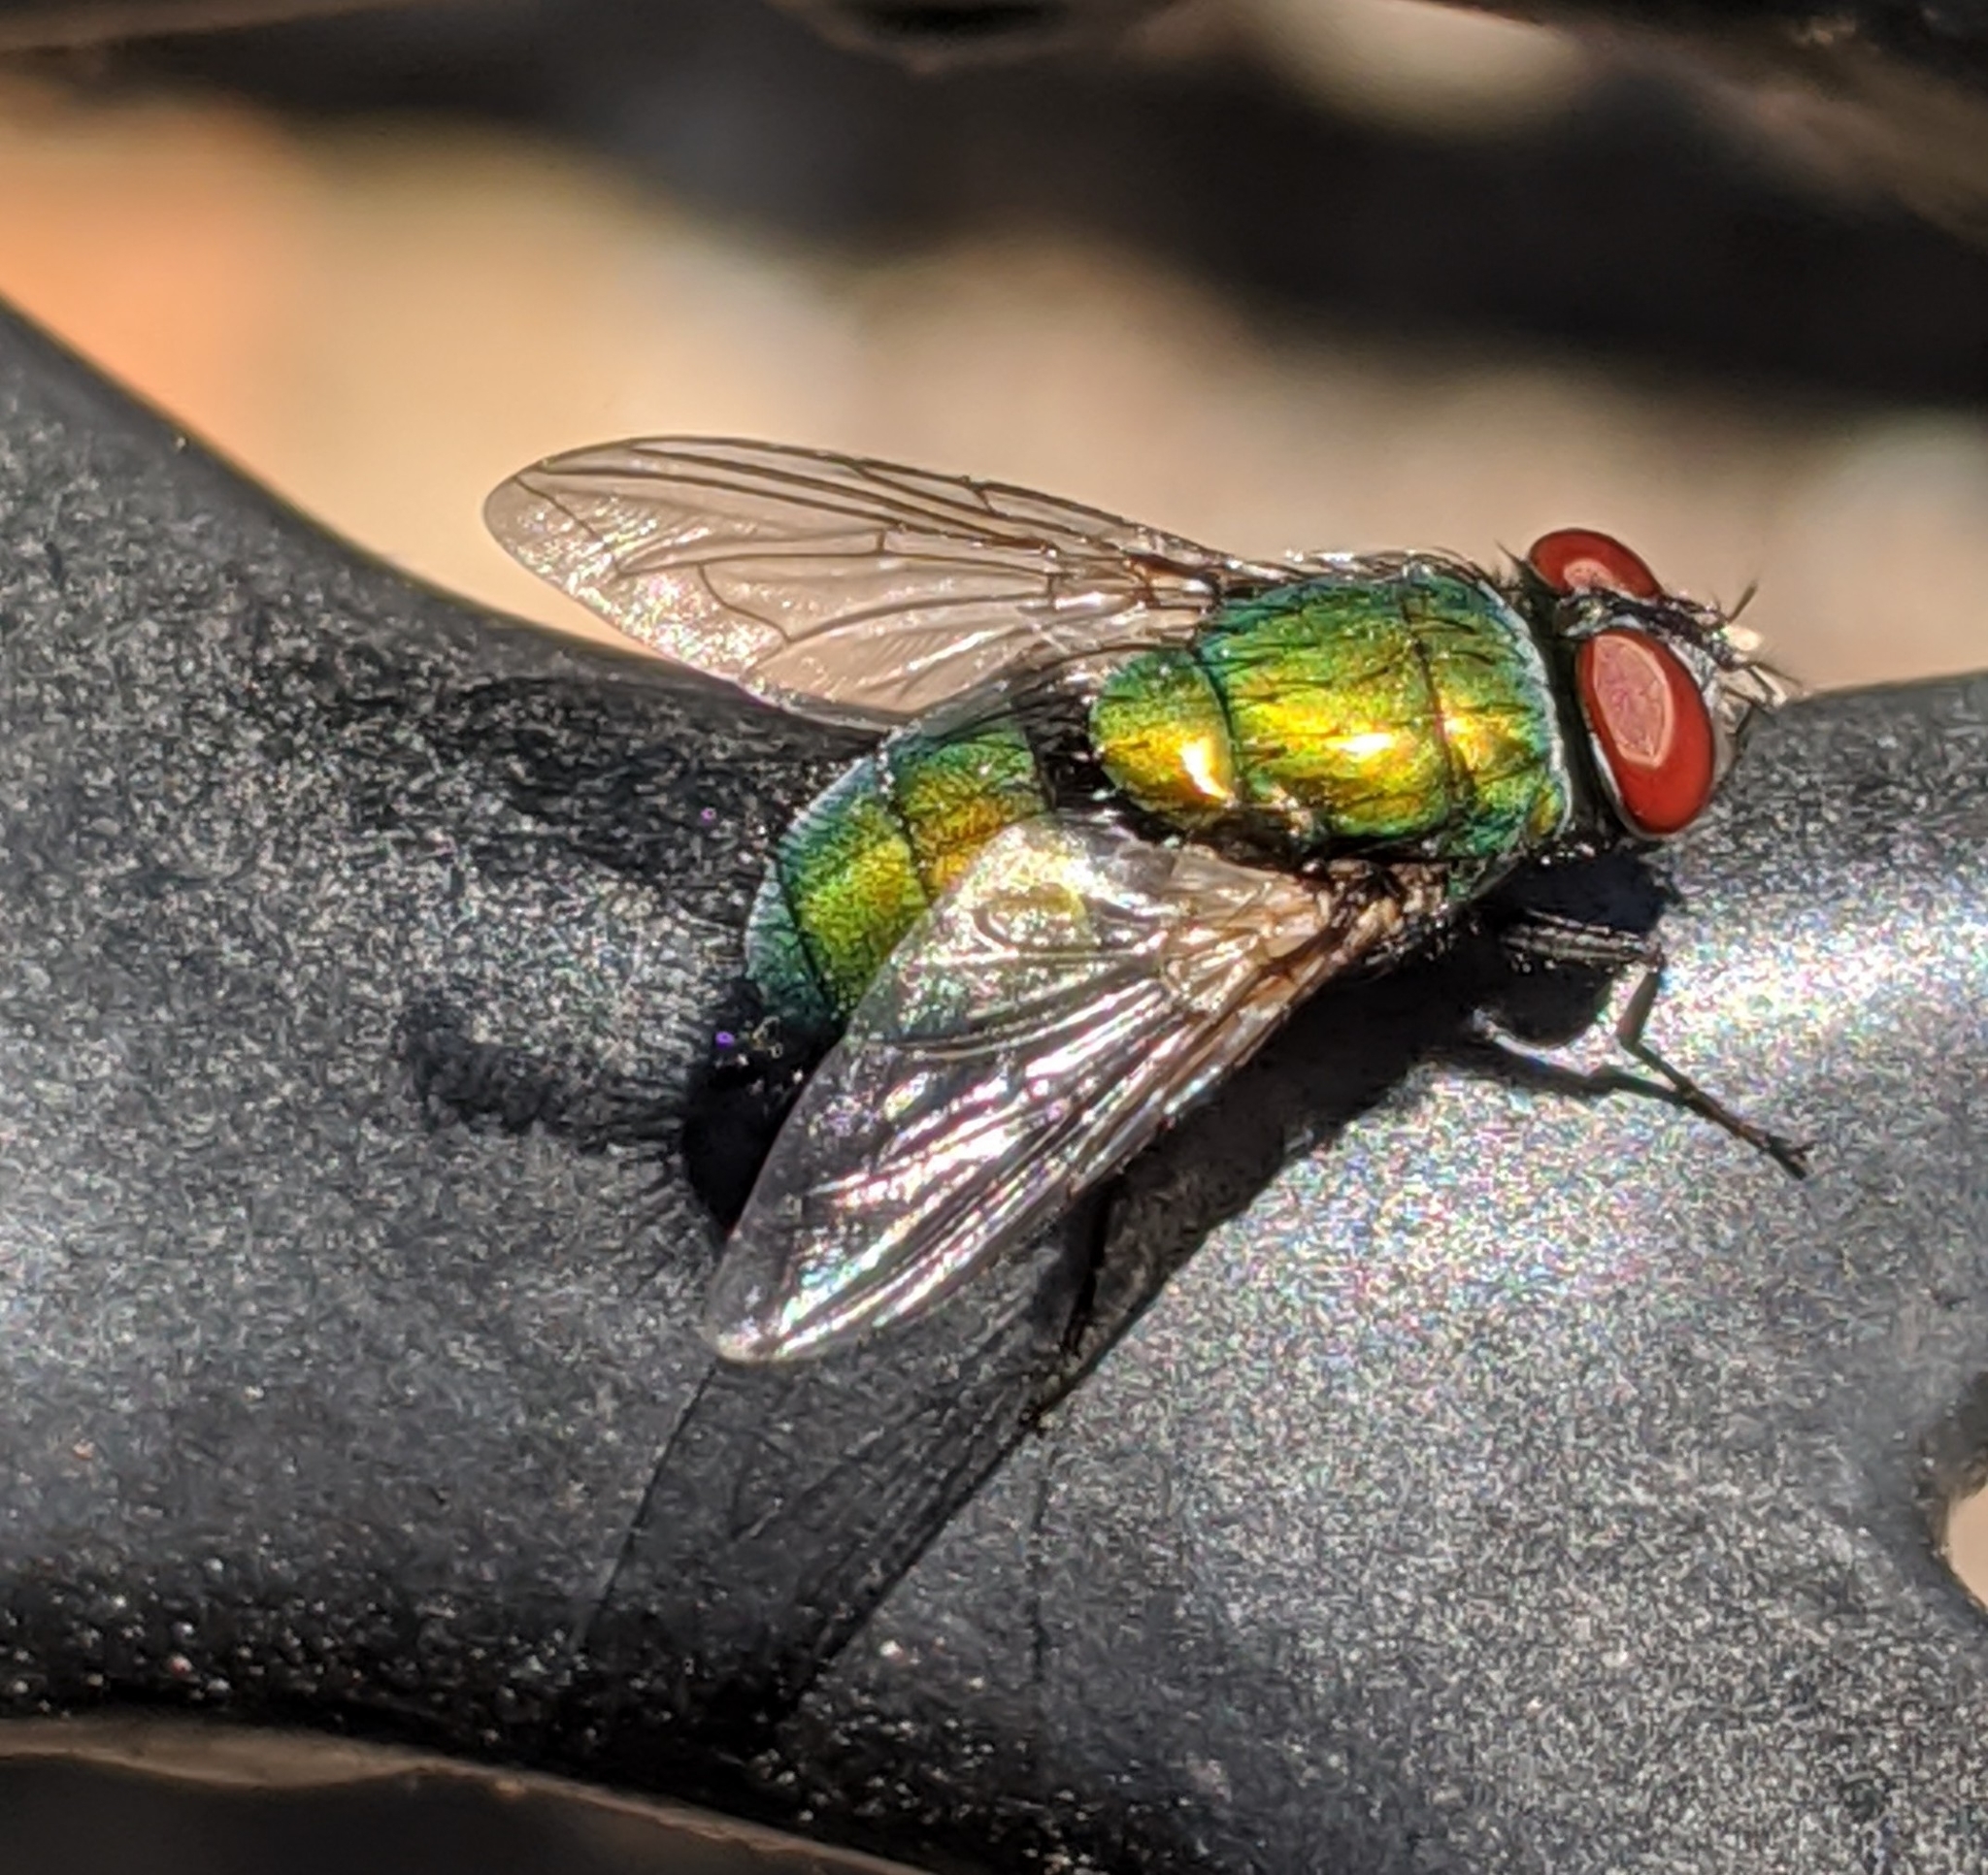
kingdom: Animalia
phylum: Arthropoda
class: Insecta
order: Diptera
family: Calliphoridae
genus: Lucilia
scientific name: Lucilia sericata
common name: Blow fly
